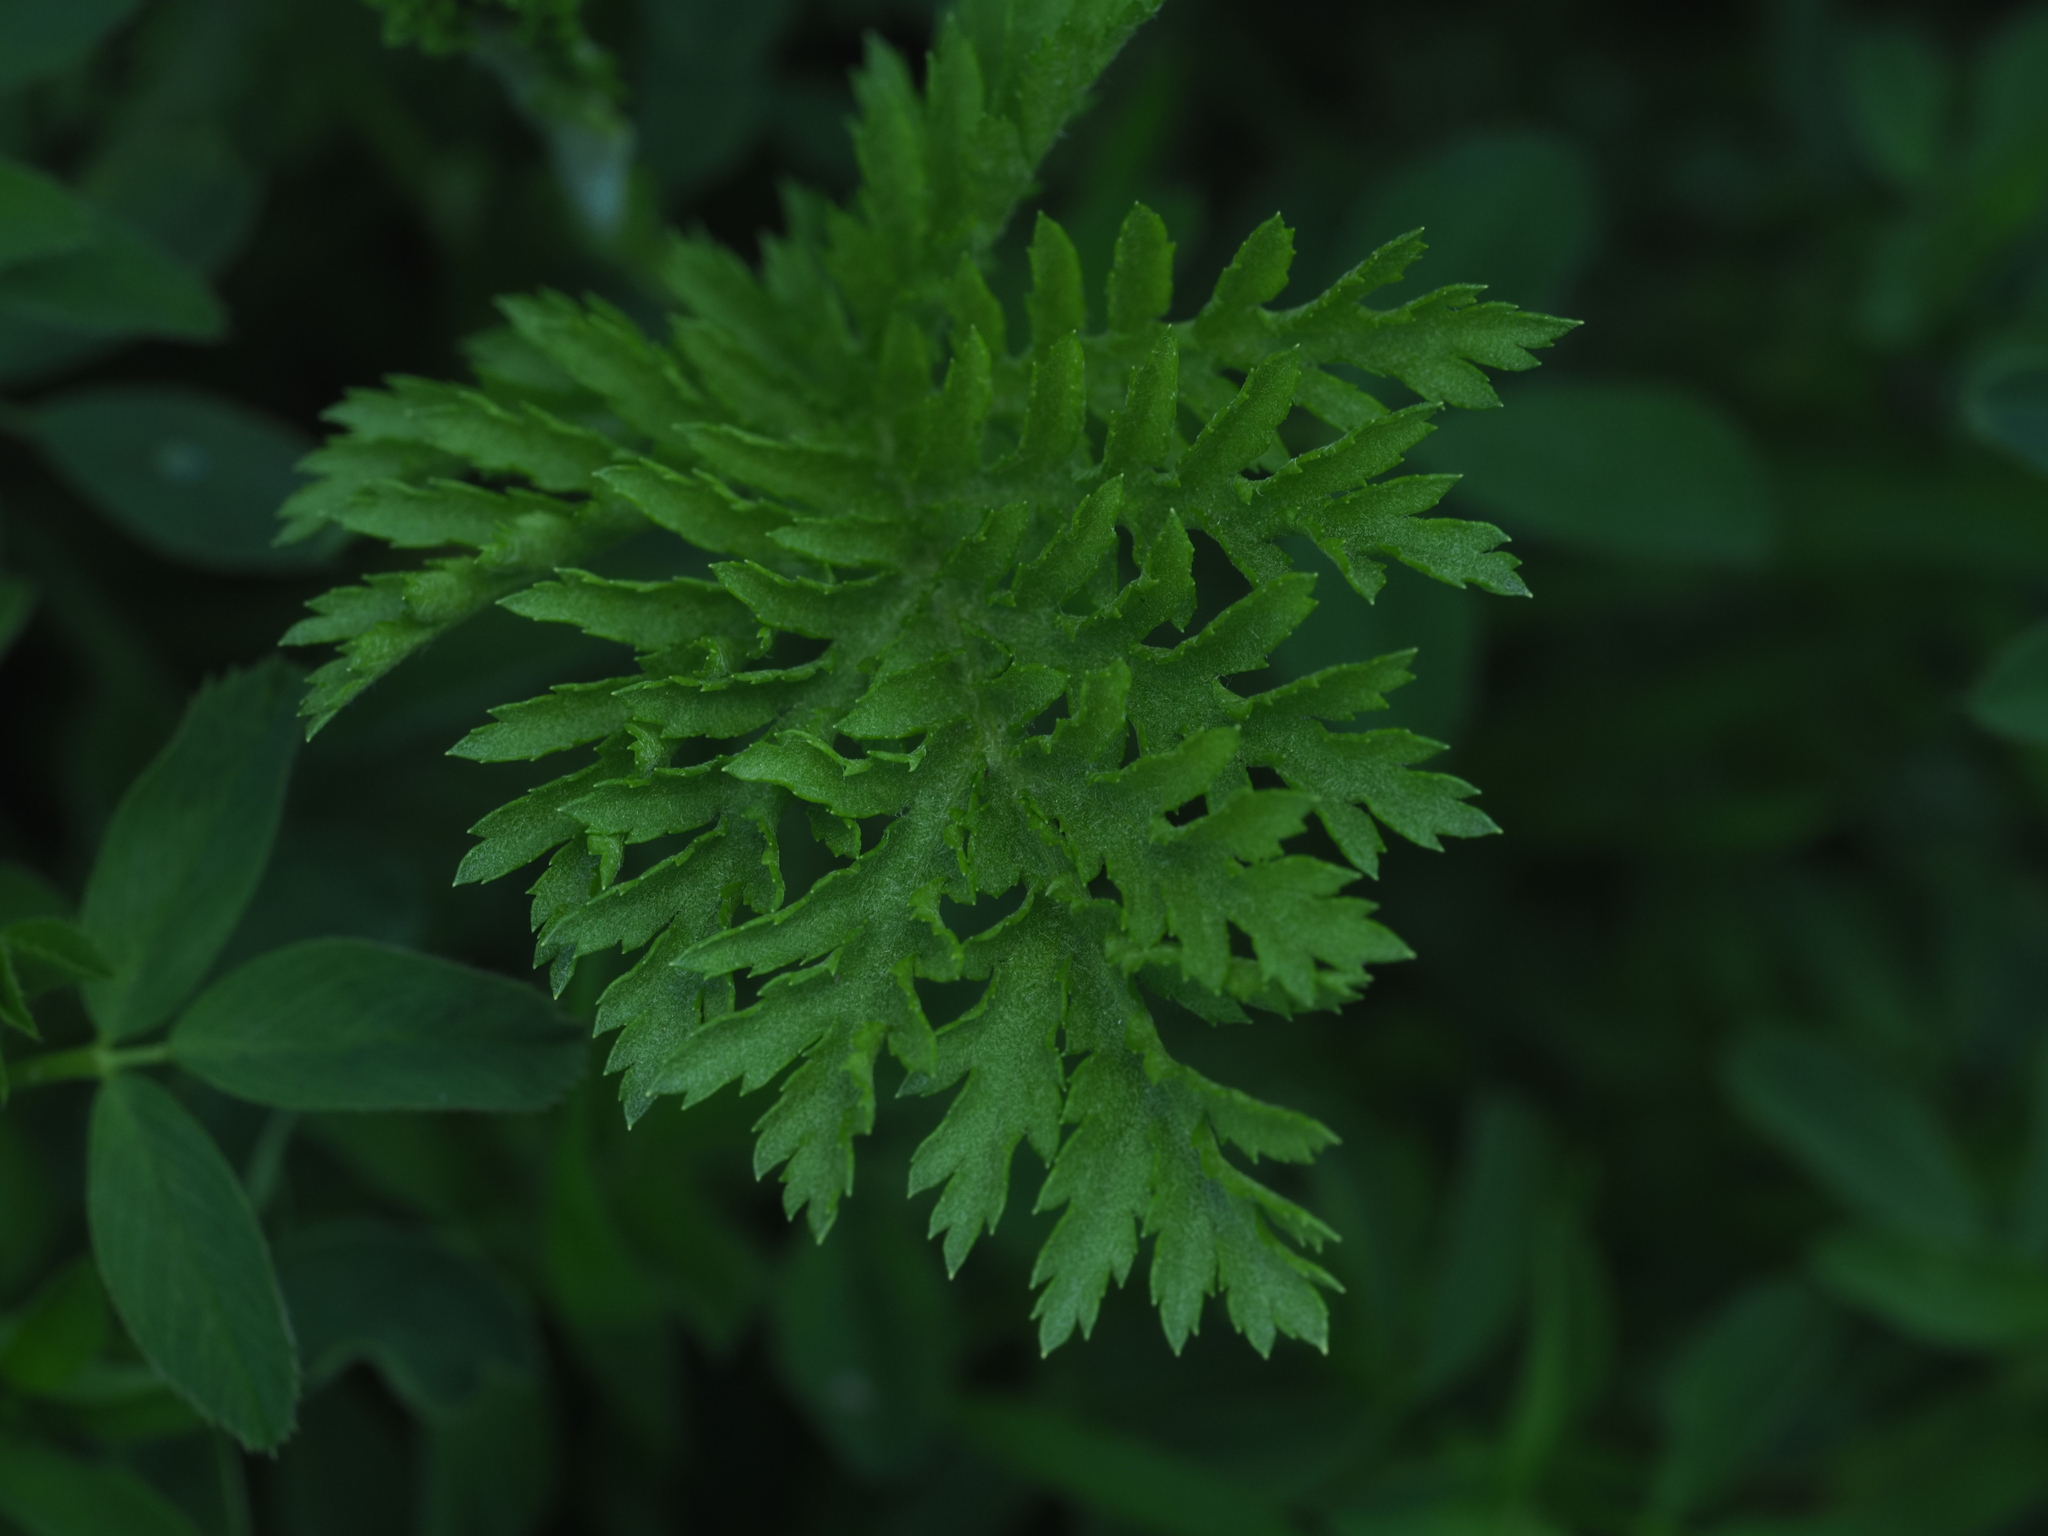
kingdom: Plantae
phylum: Tracheophyta
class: Magnoliopsida
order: Asterales
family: Asteraceae
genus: Tanacetum
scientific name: Tanacetum vulgare
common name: Common tansy
